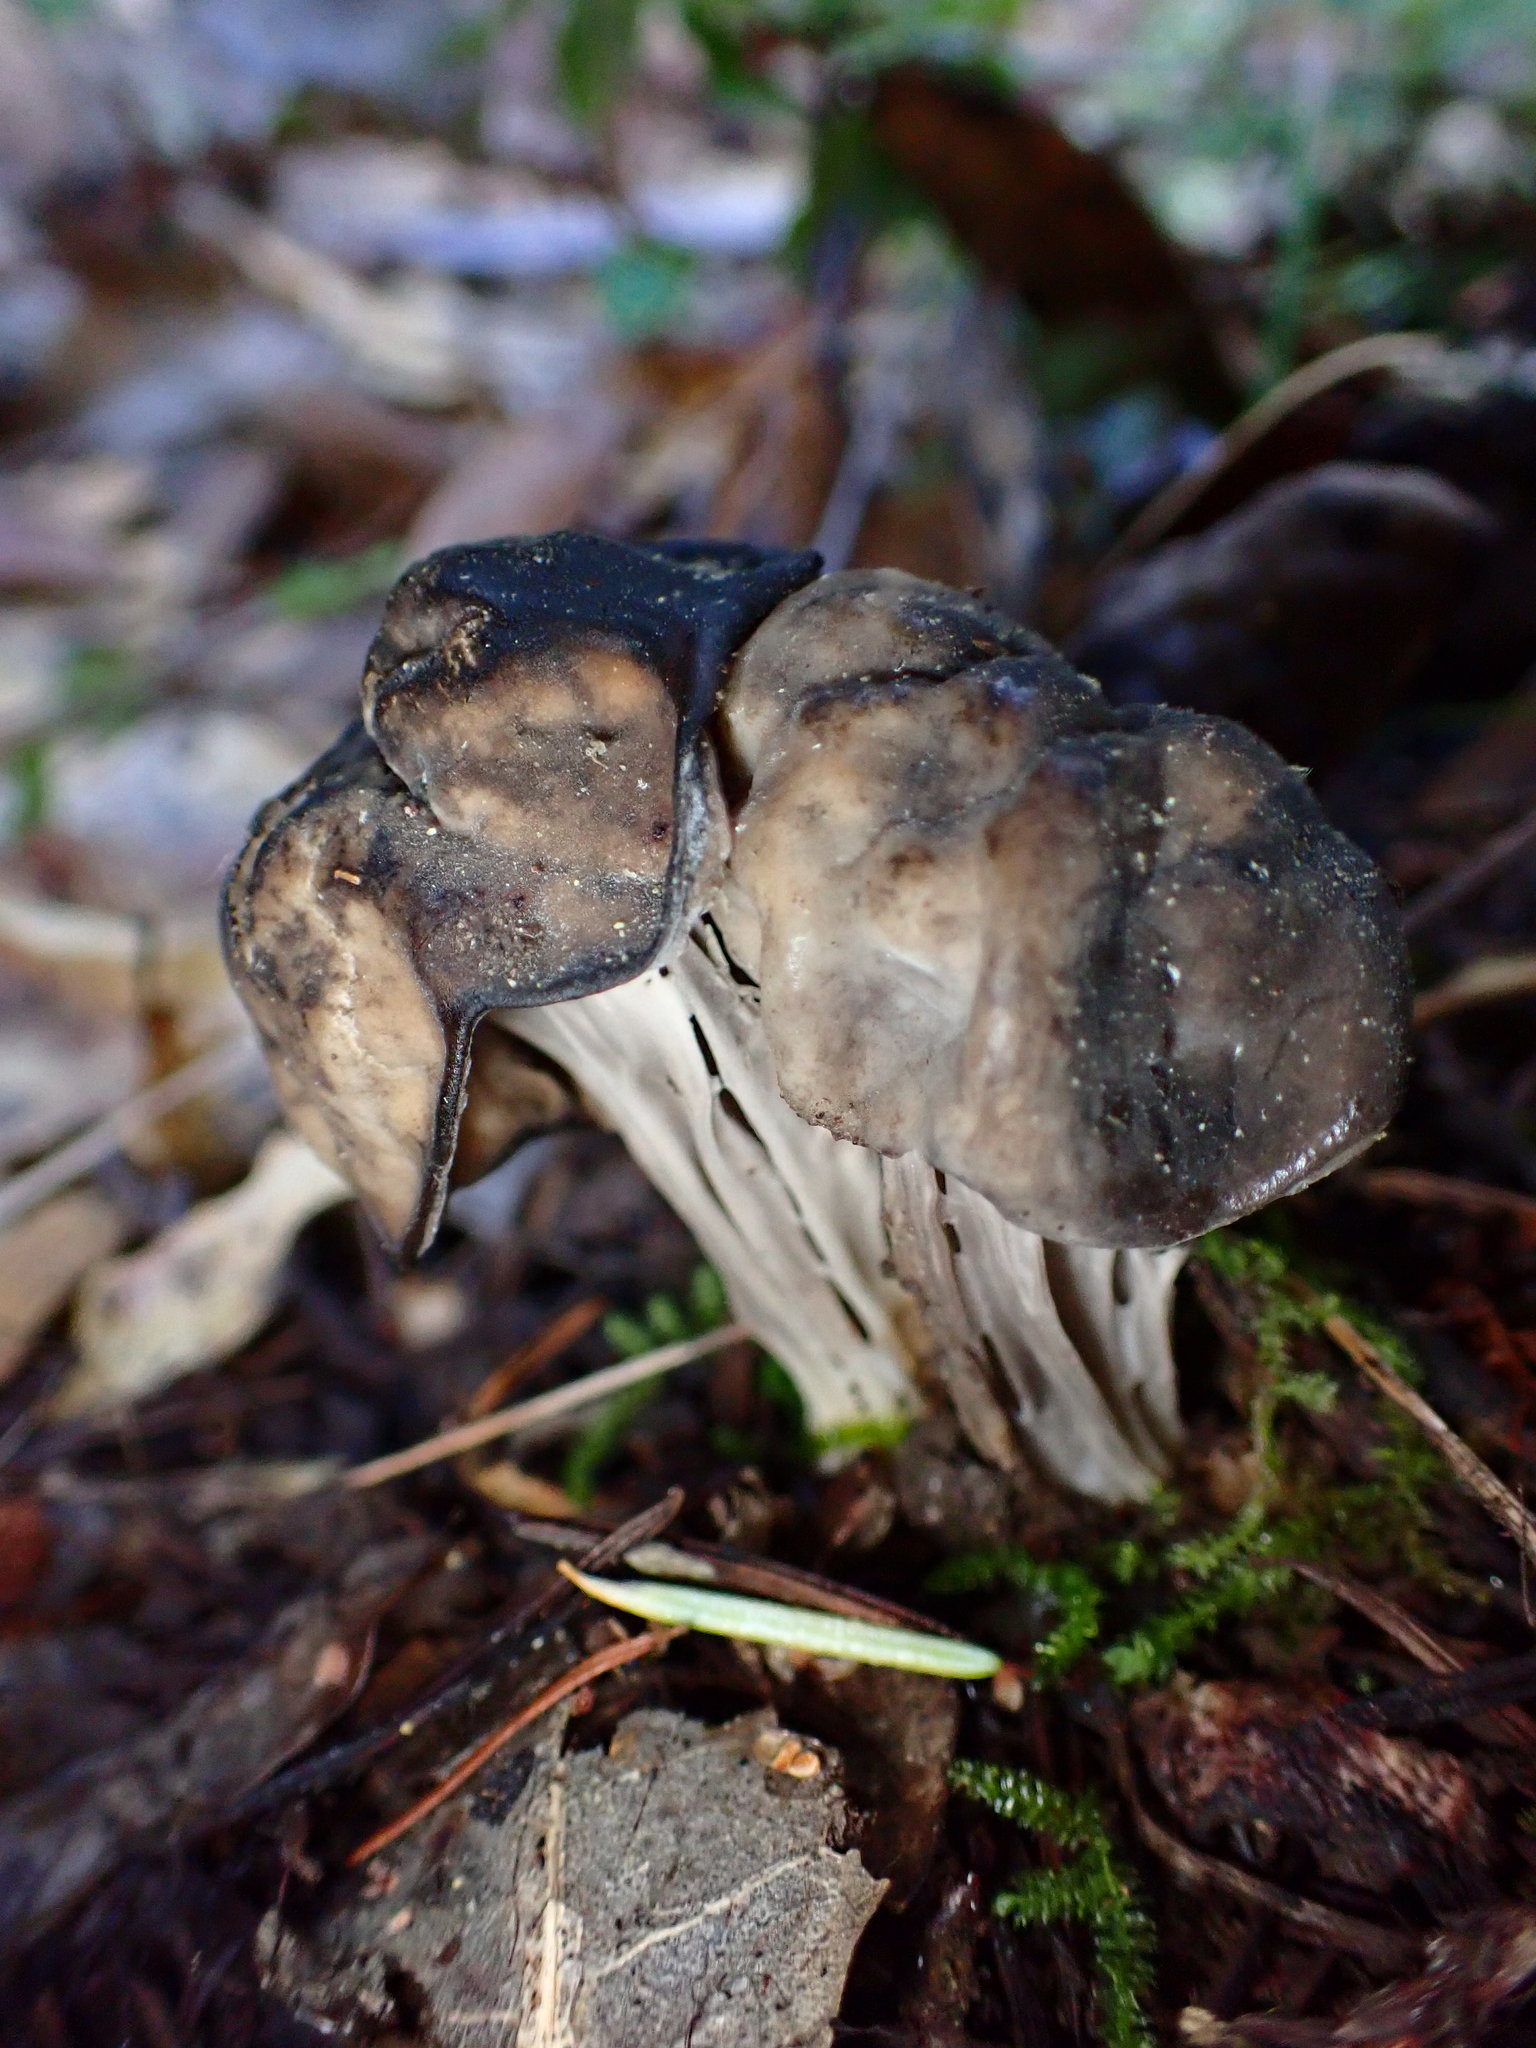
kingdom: Fungi
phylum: Ascomycota
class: Pezizomycetes
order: Pezizales
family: Helvellaceae
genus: Helvella
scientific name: Helvella vespertina
